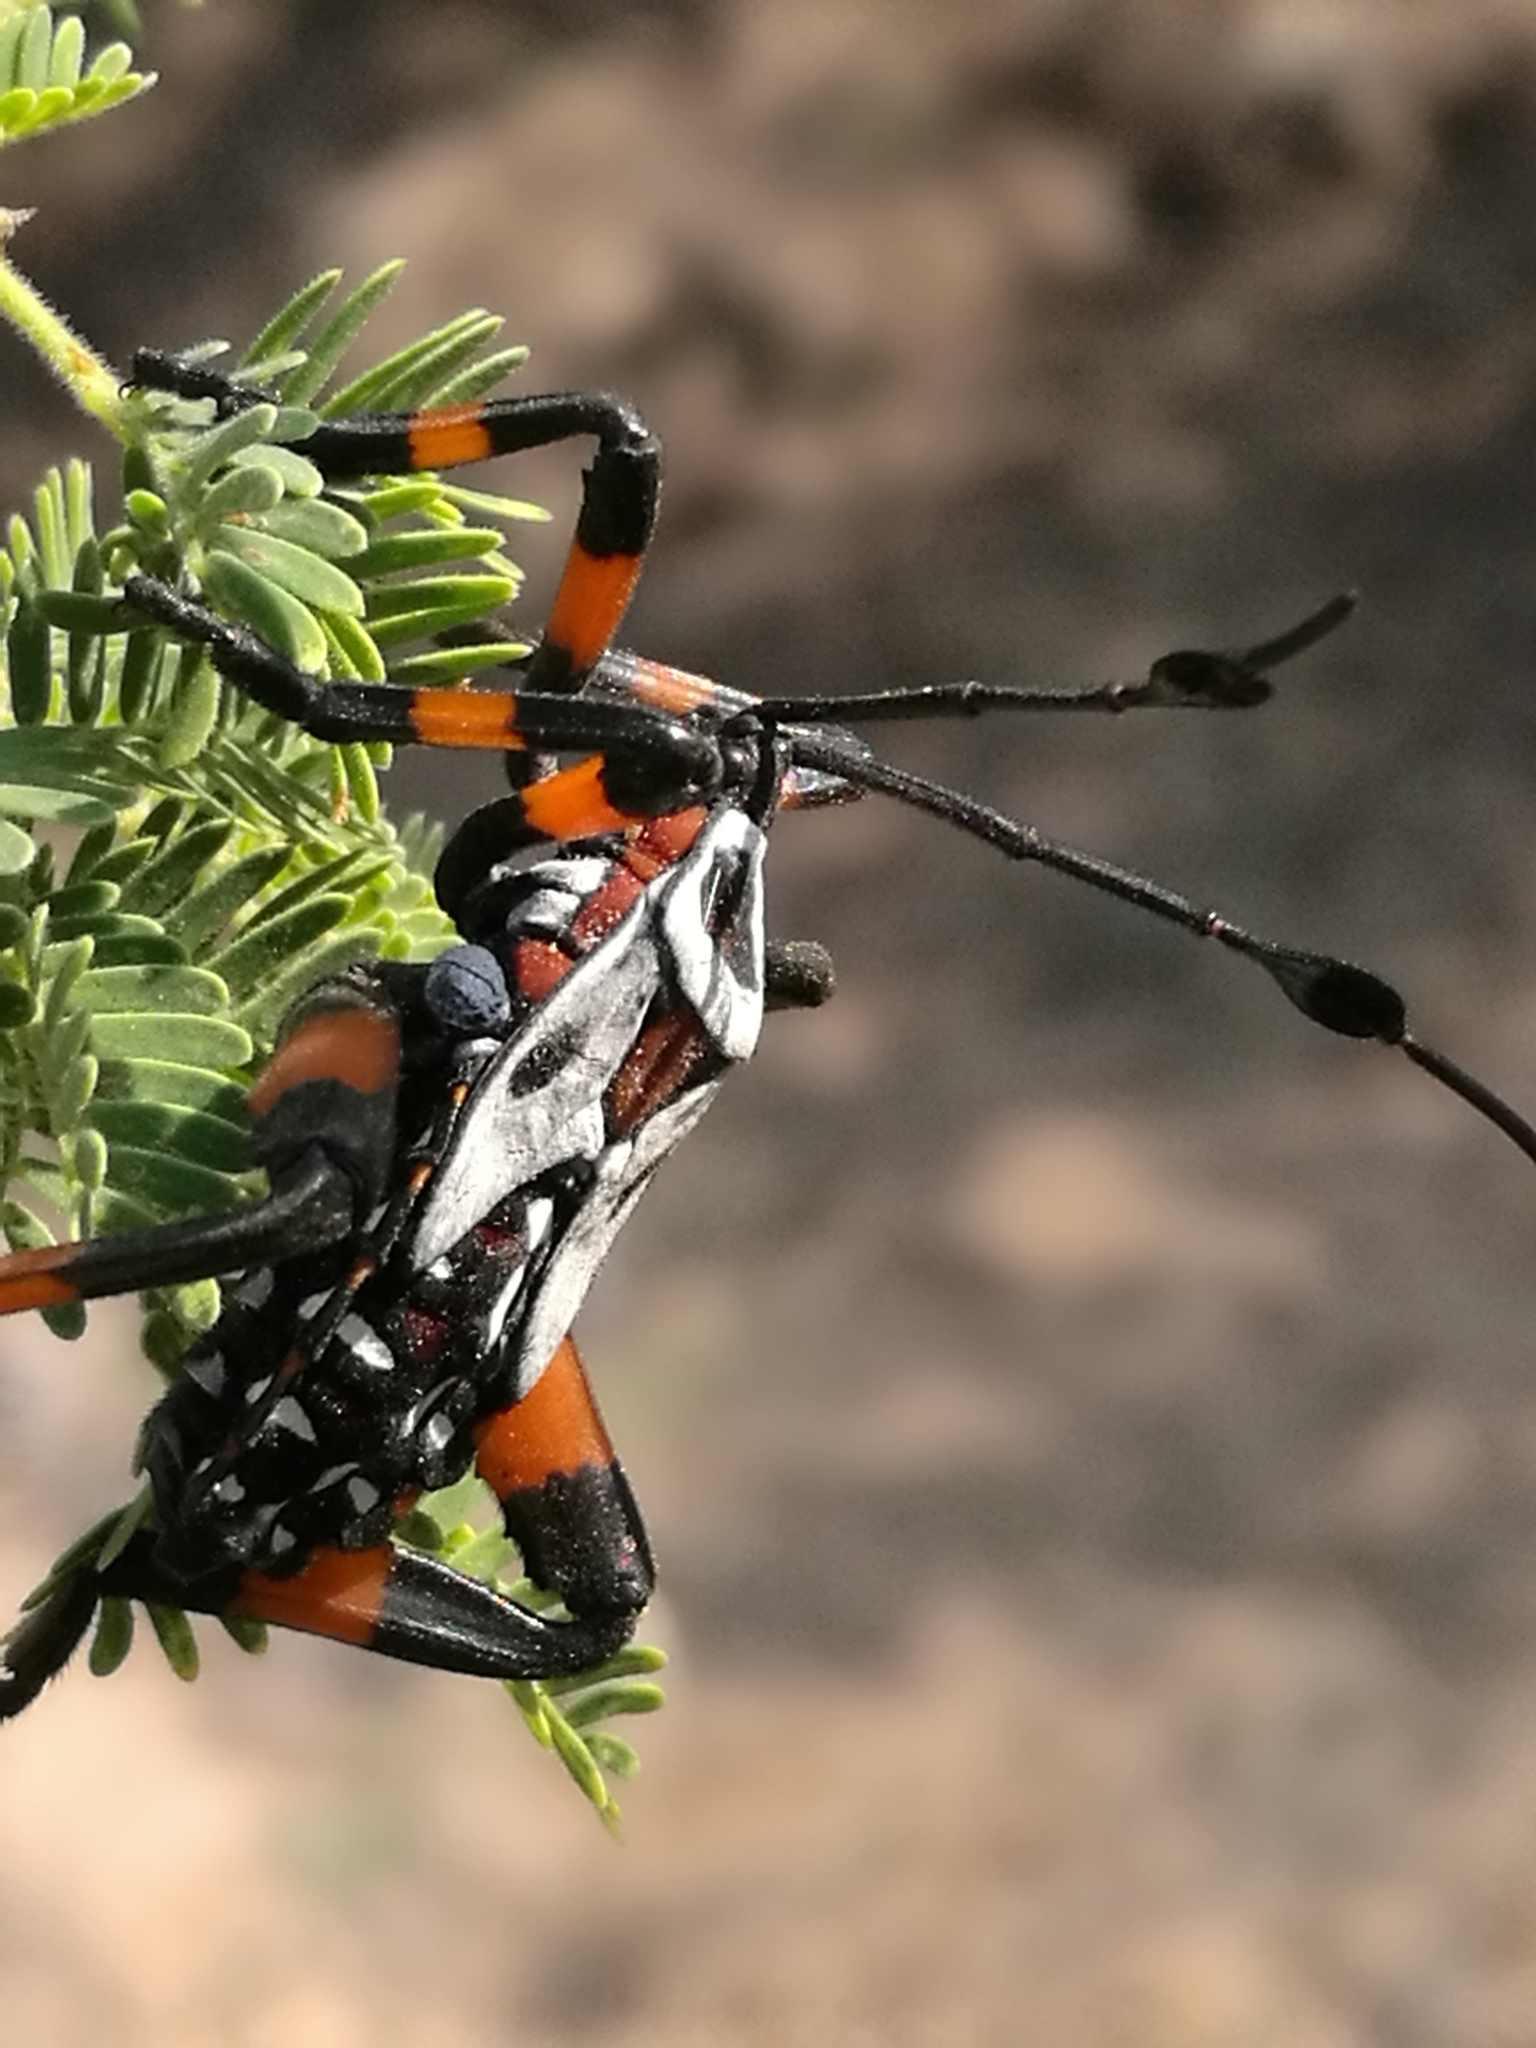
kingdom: Animalia
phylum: Arthropoda
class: Insecta
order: Hemiptera
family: Coreidae
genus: Thasus
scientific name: Thasus
